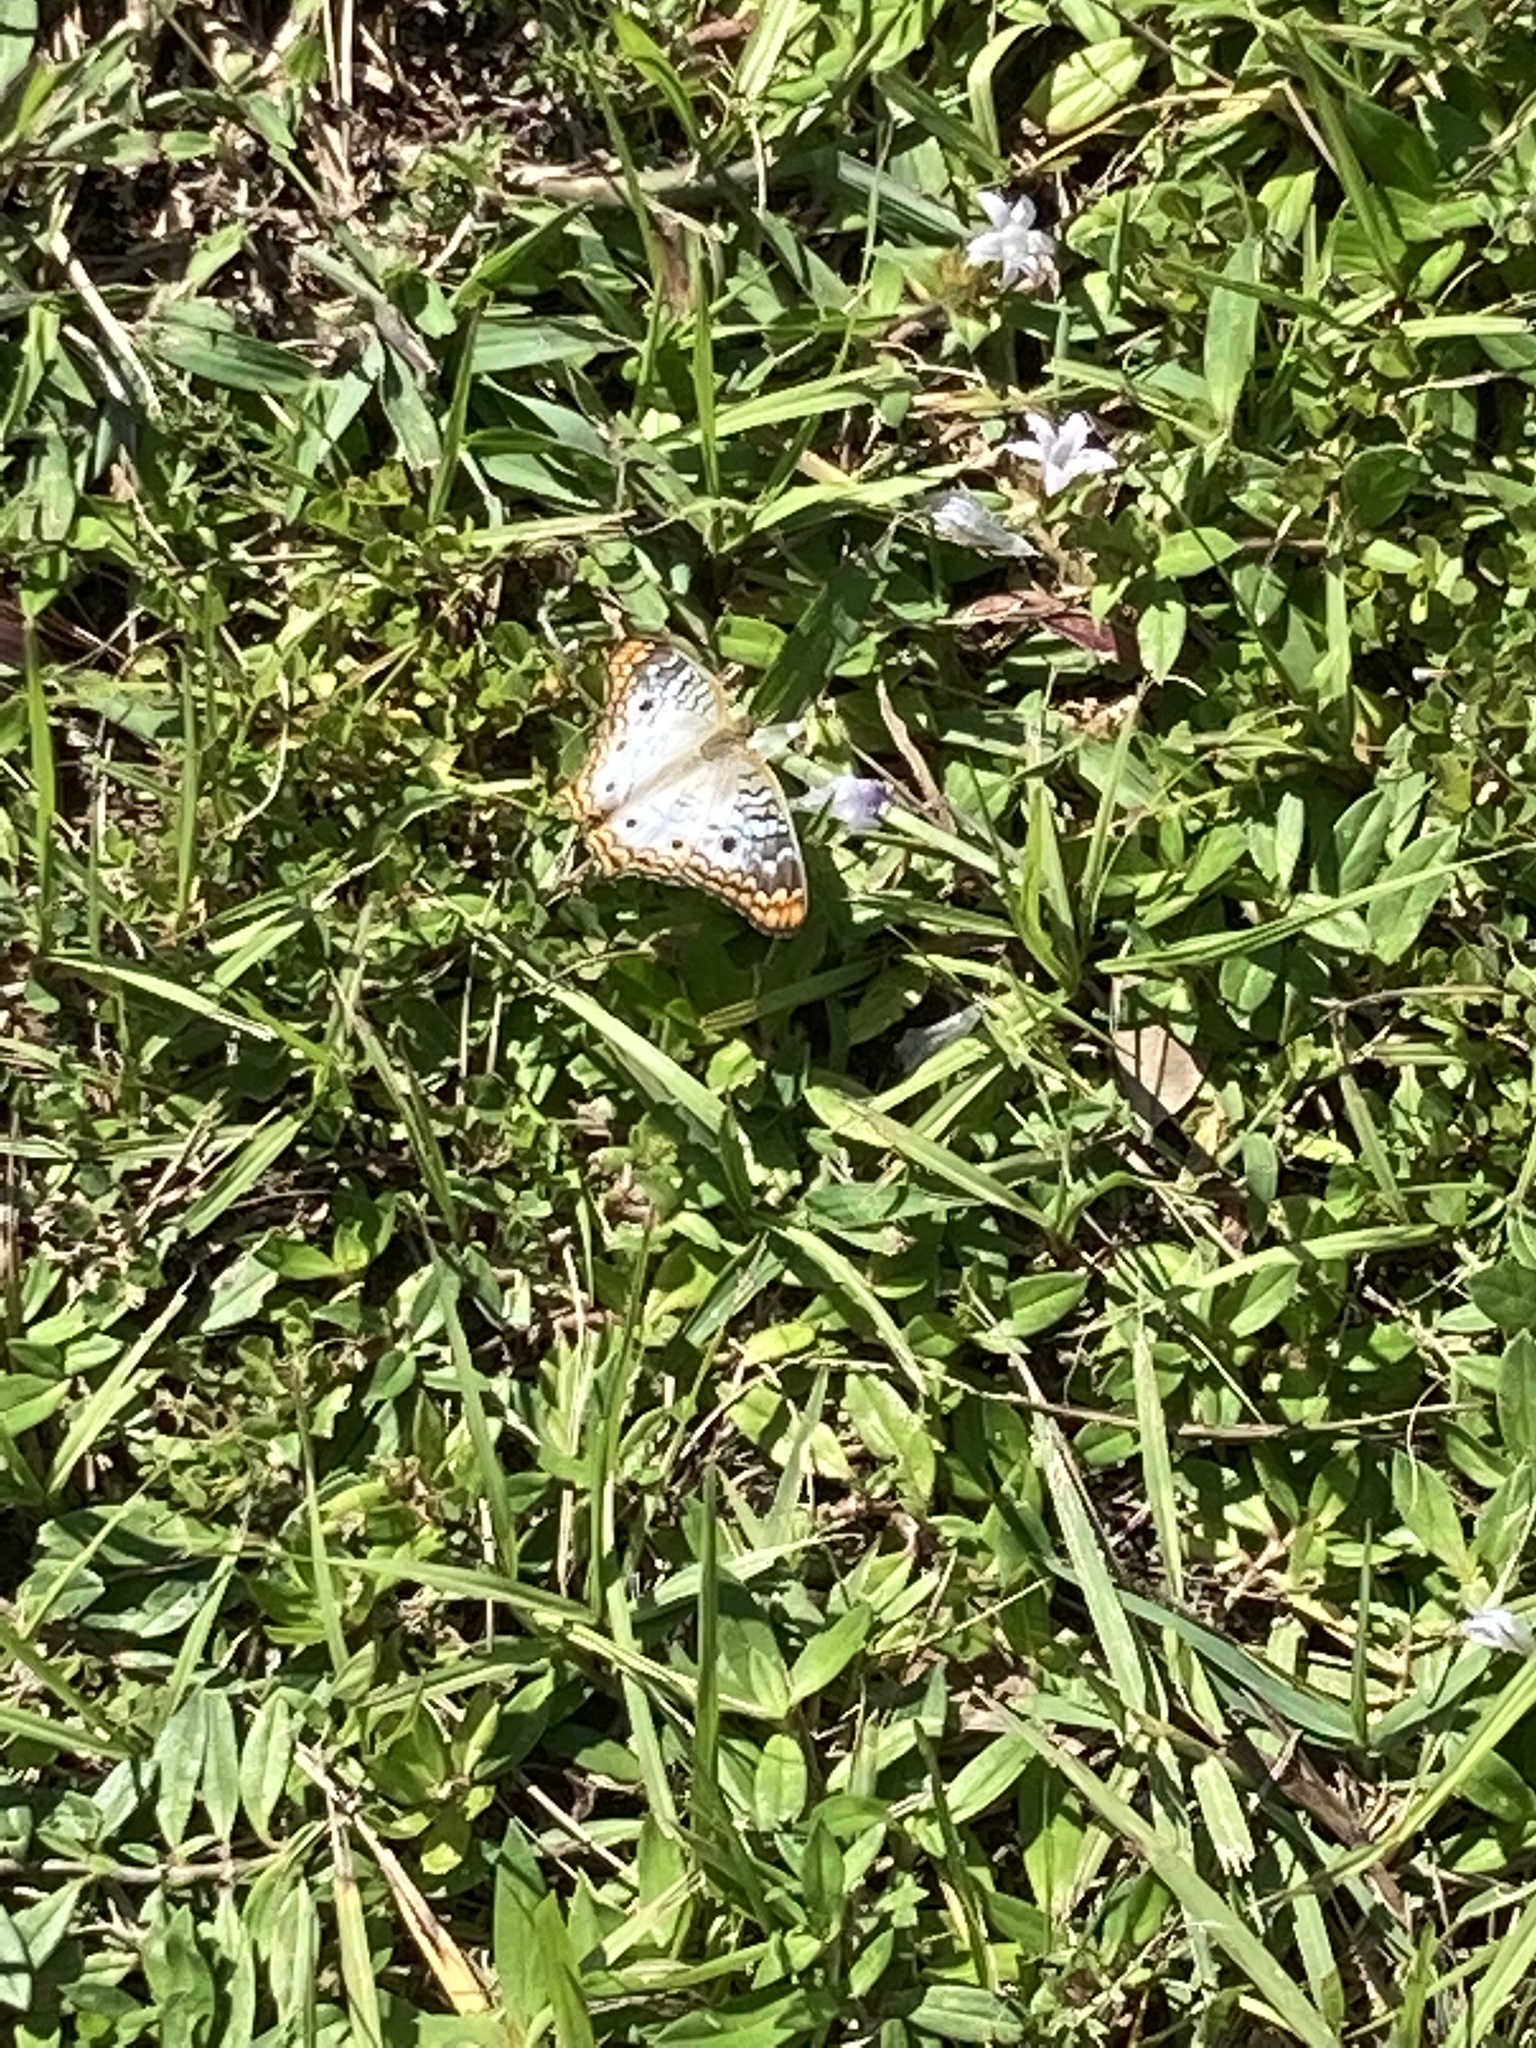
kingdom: Animalia
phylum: Arthropoda
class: Insecta
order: Lepidoptera
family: Nymphalidae
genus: Anartia
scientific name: Anartia jatrophae
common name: White peacock
